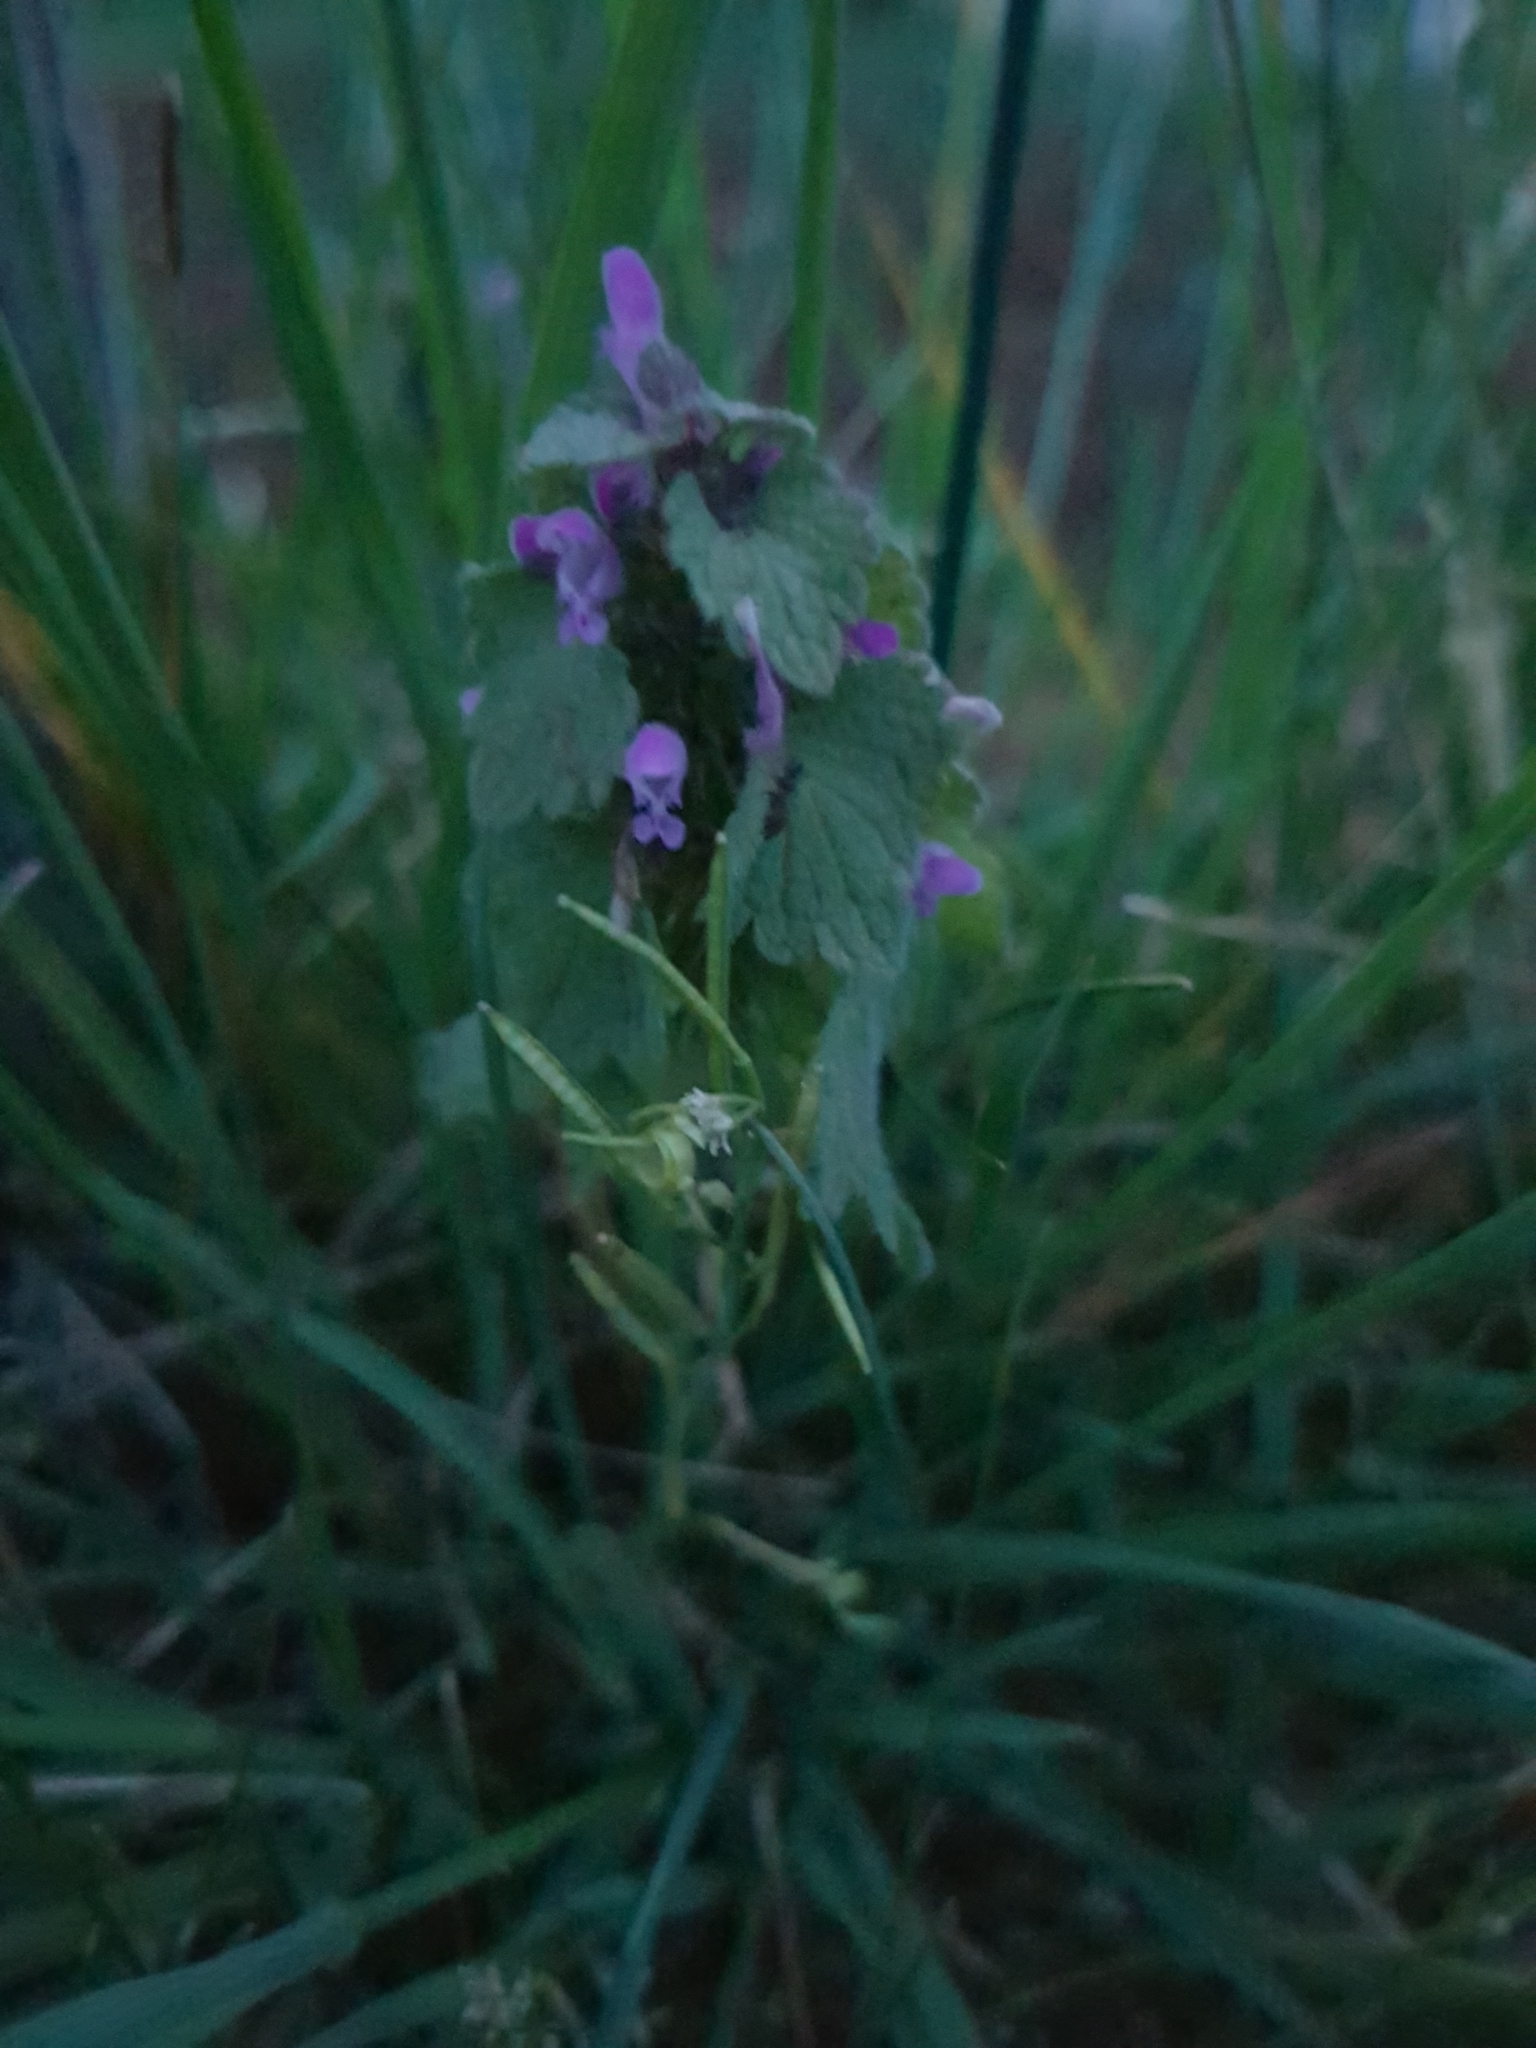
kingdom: Plantae
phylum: Tracheophyta
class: Magnoliopsida
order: Lamiales
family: Lamiaceae
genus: Lamium
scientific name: Lamium purpureum
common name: Red dead-nettle
